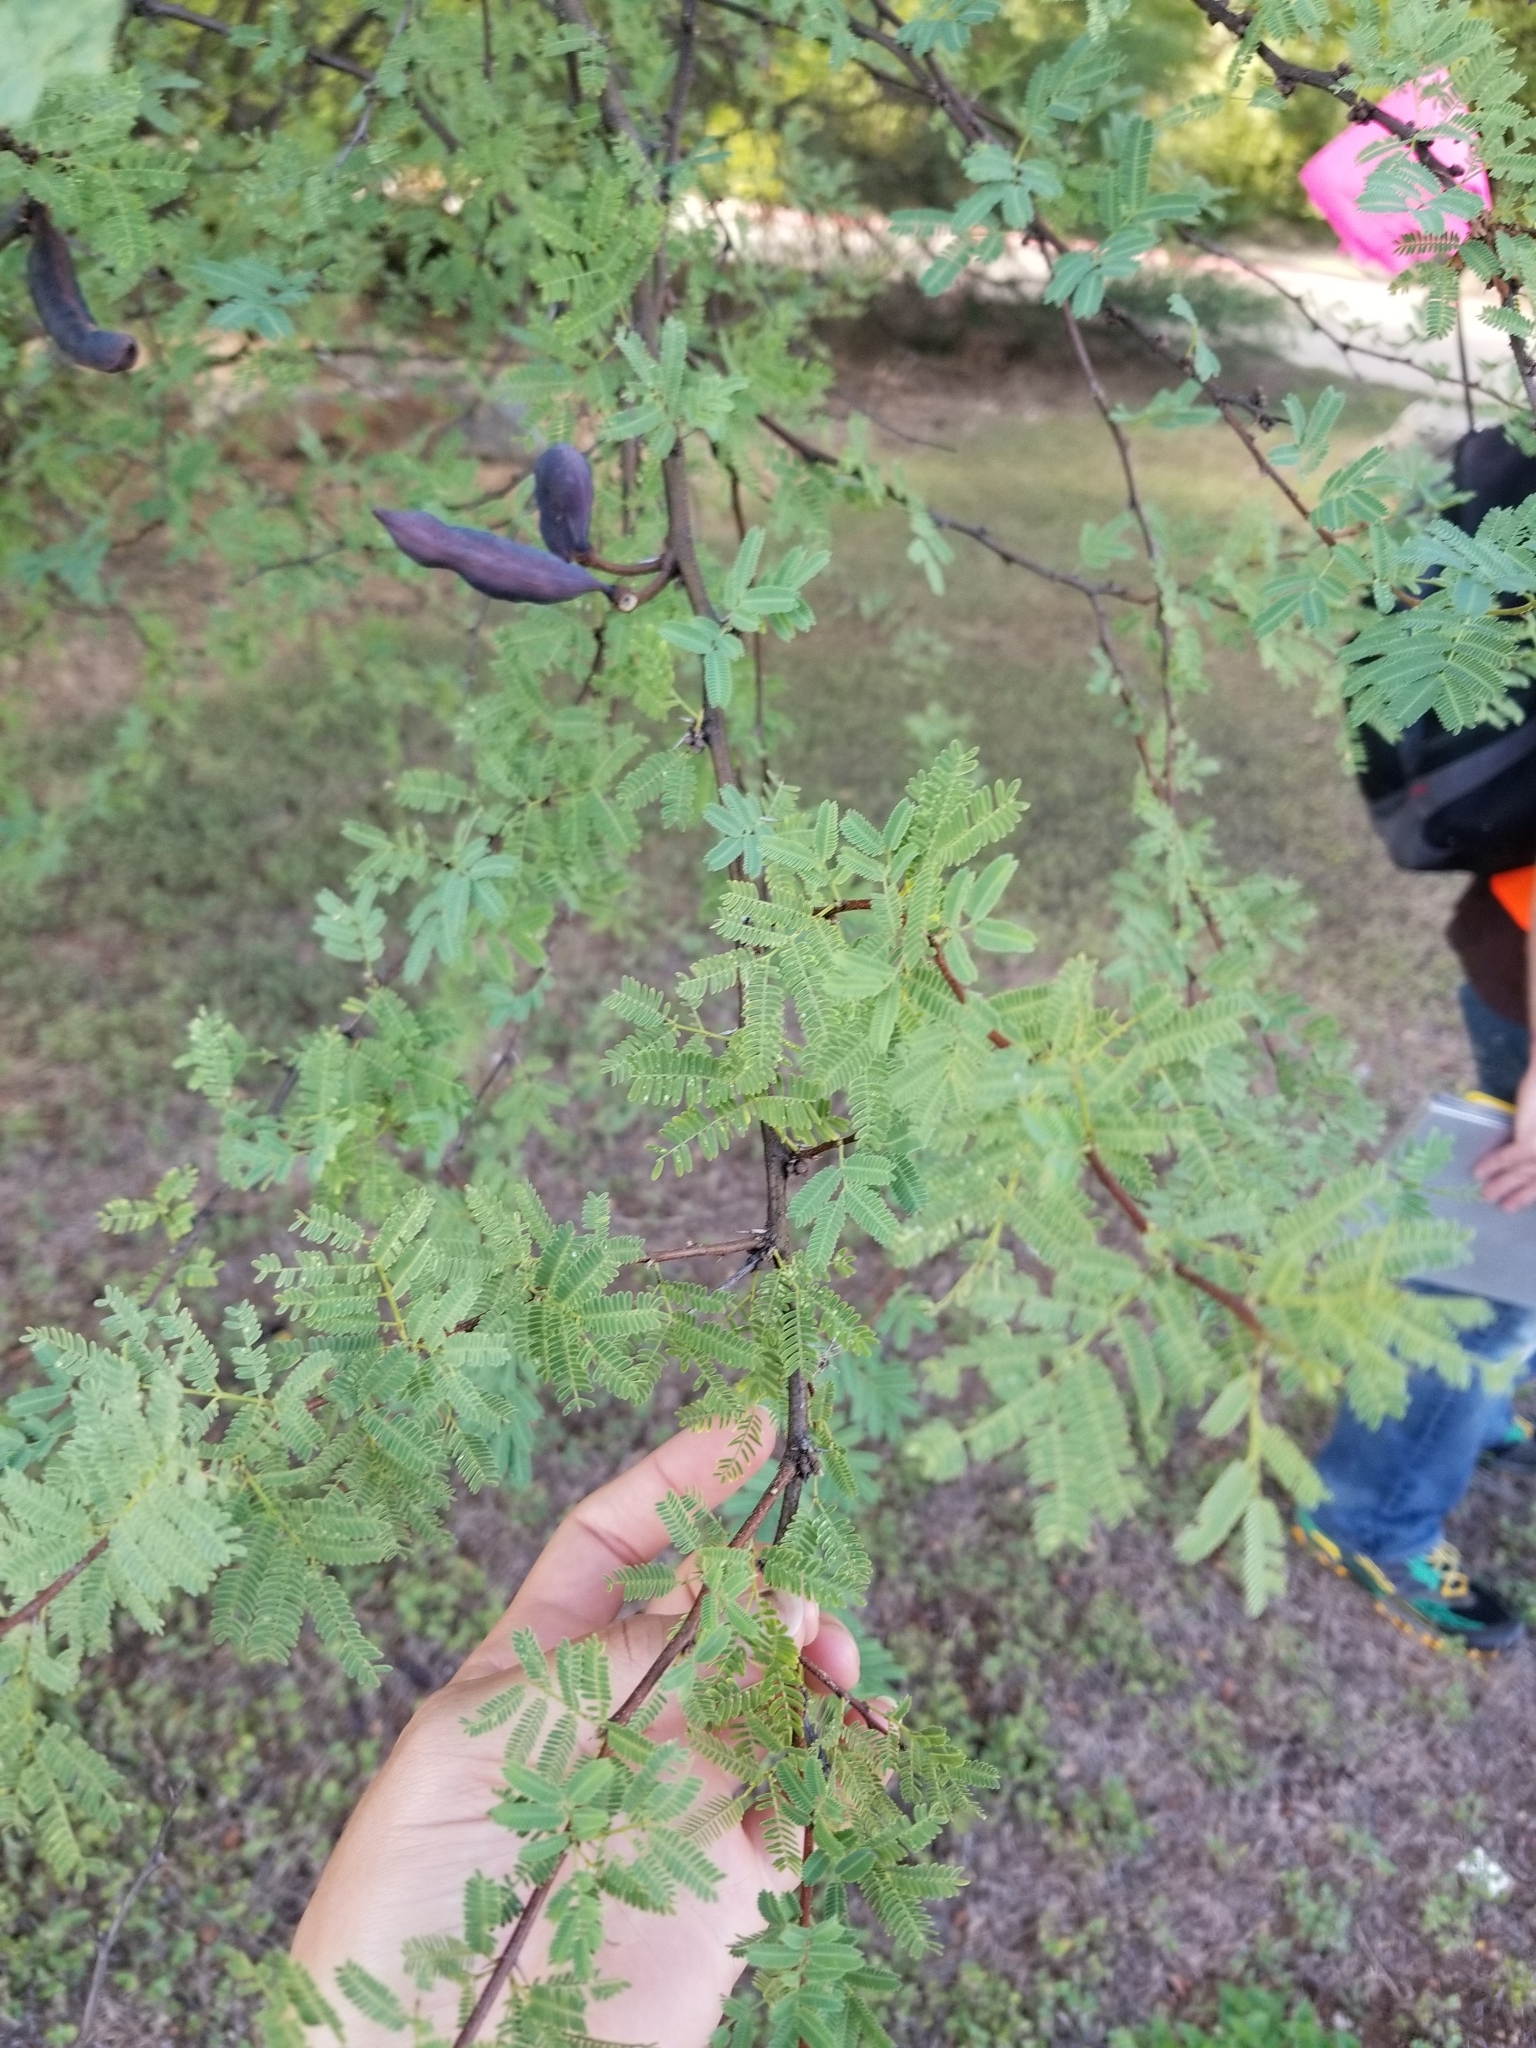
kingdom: Plantae
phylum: Tracheophyta
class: Magnoliopsida
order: Fabales
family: Fabaceae
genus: Vachellia
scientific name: Vachellia farnesiana
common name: Sweet acacia
